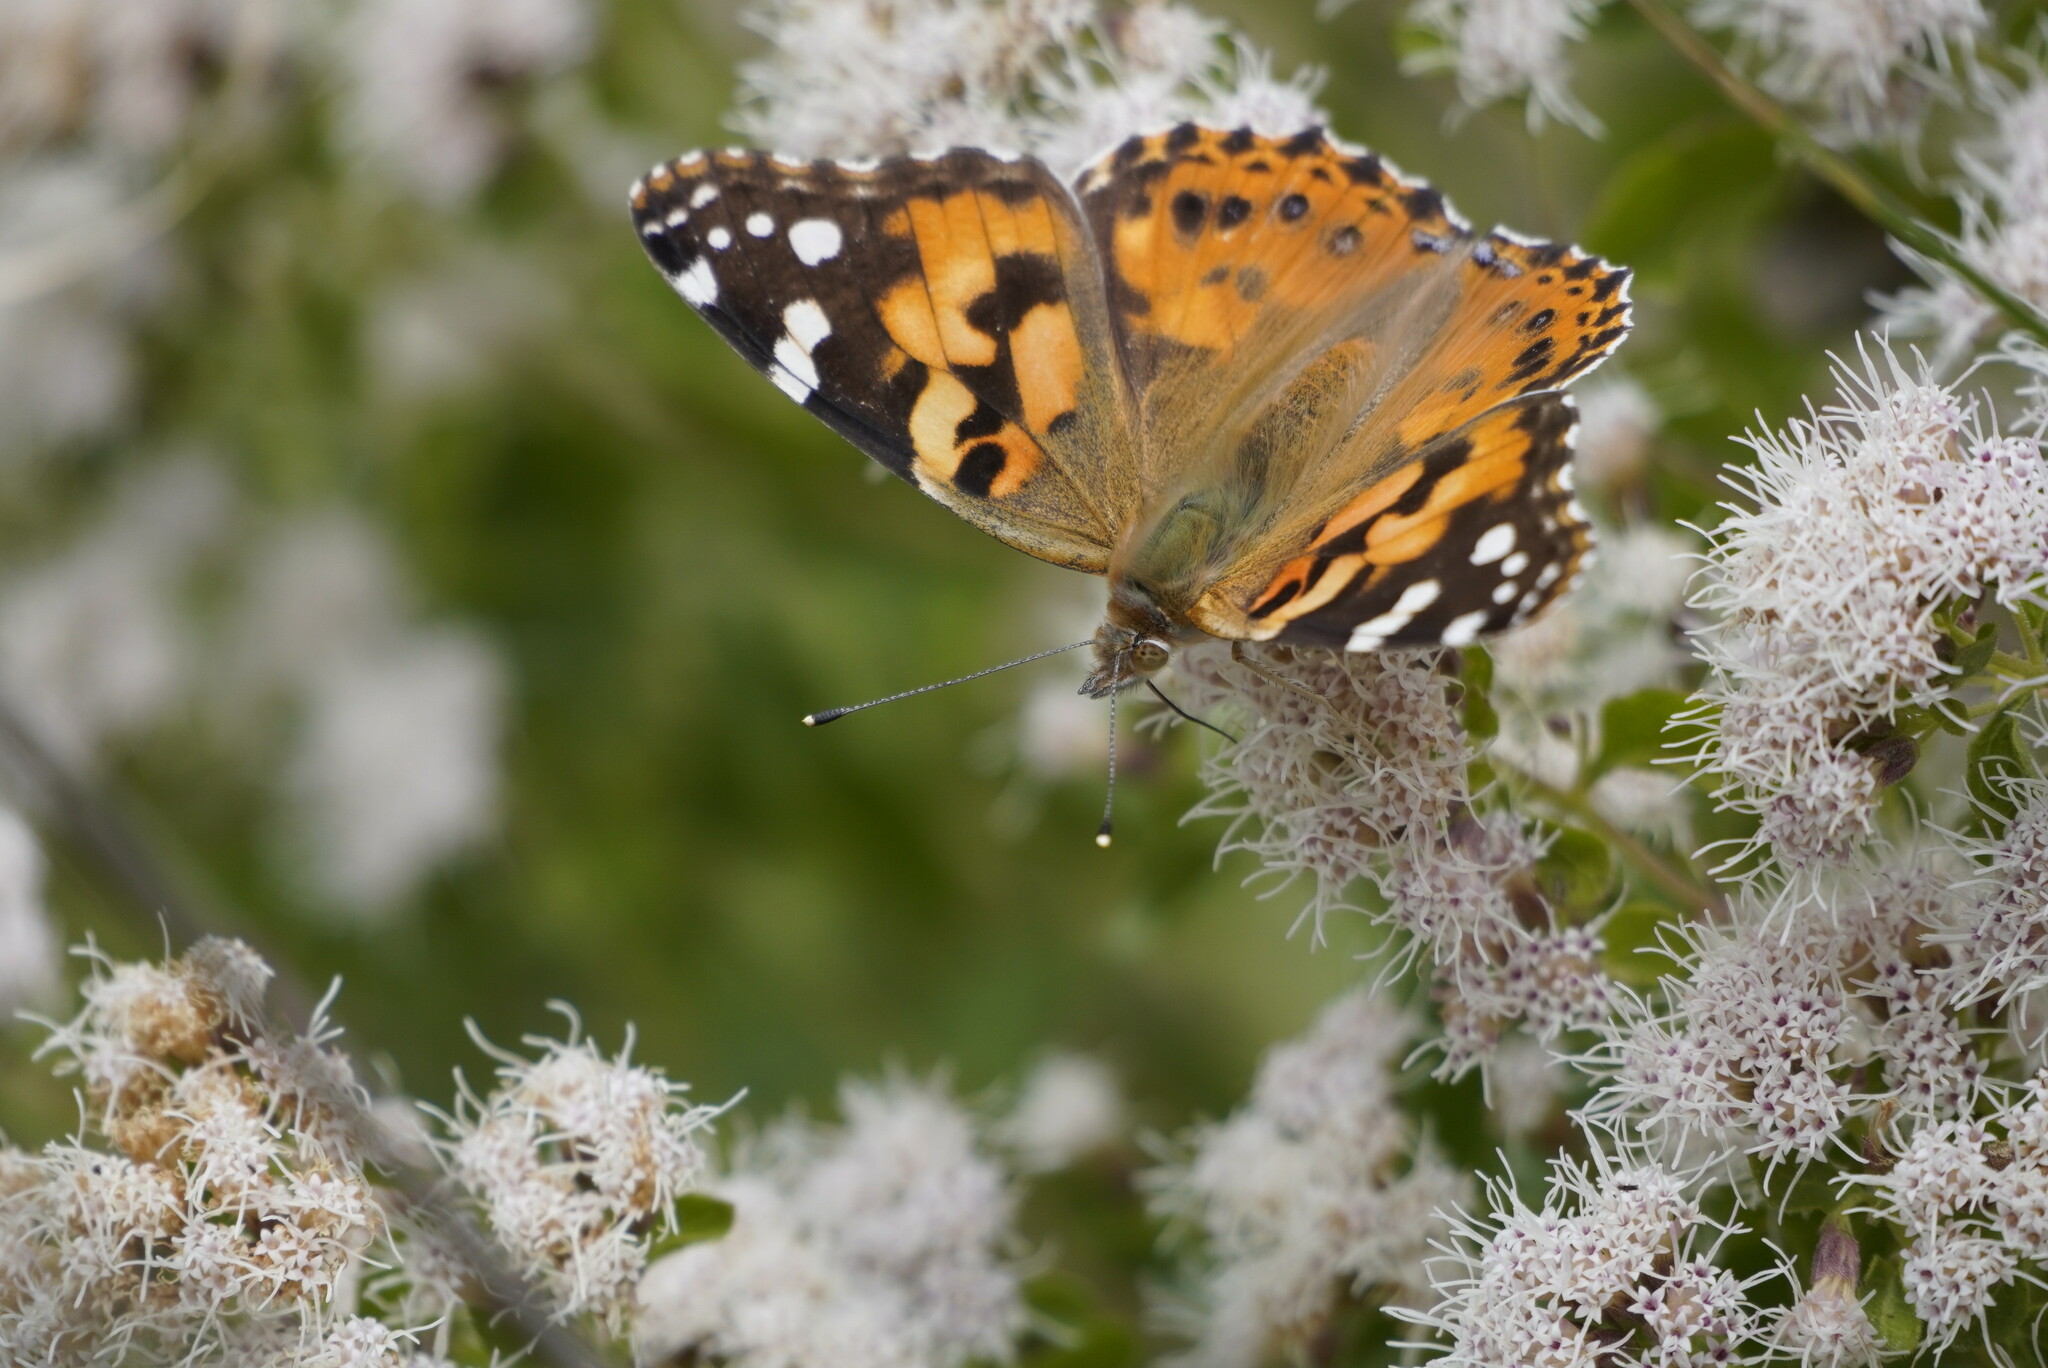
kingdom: Animalia
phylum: Arthropoda
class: Insecta
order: Lepidoptera
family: Nymphalidae
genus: Vanessa
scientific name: Vanessa cardui
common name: Painted lady
